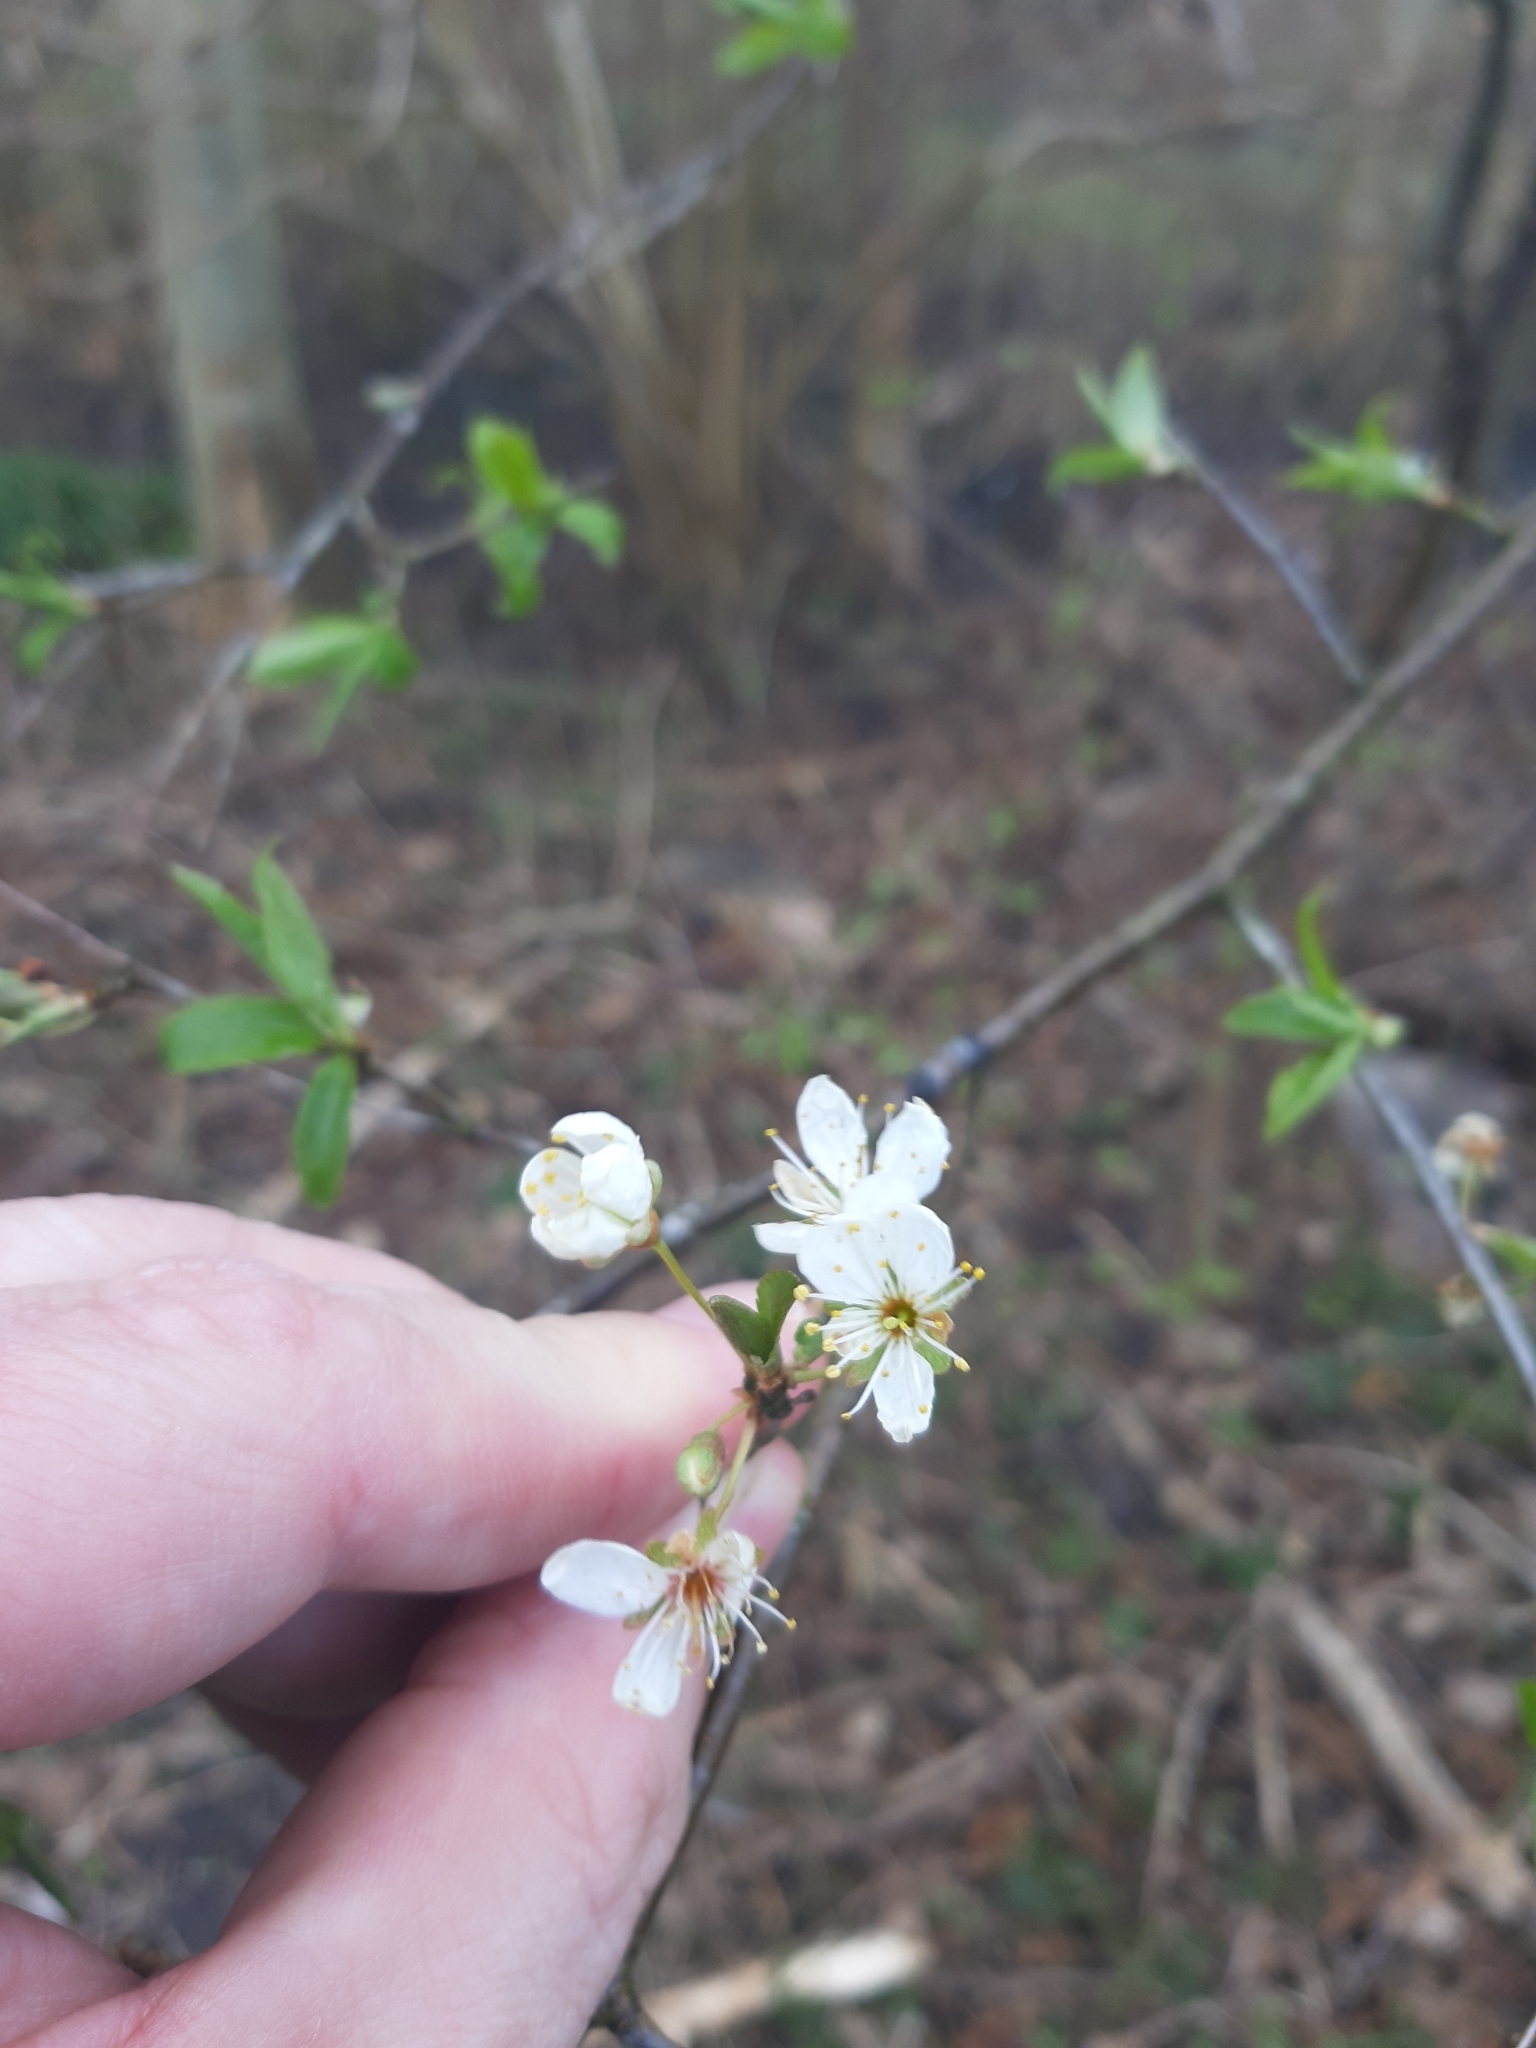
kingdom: Plantae
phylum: Tracheophyta
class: Magnoliopsida
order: Rosales
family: Rosaceae
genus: Prunus
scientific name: Prunus cerasifera
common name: Cherry plum
